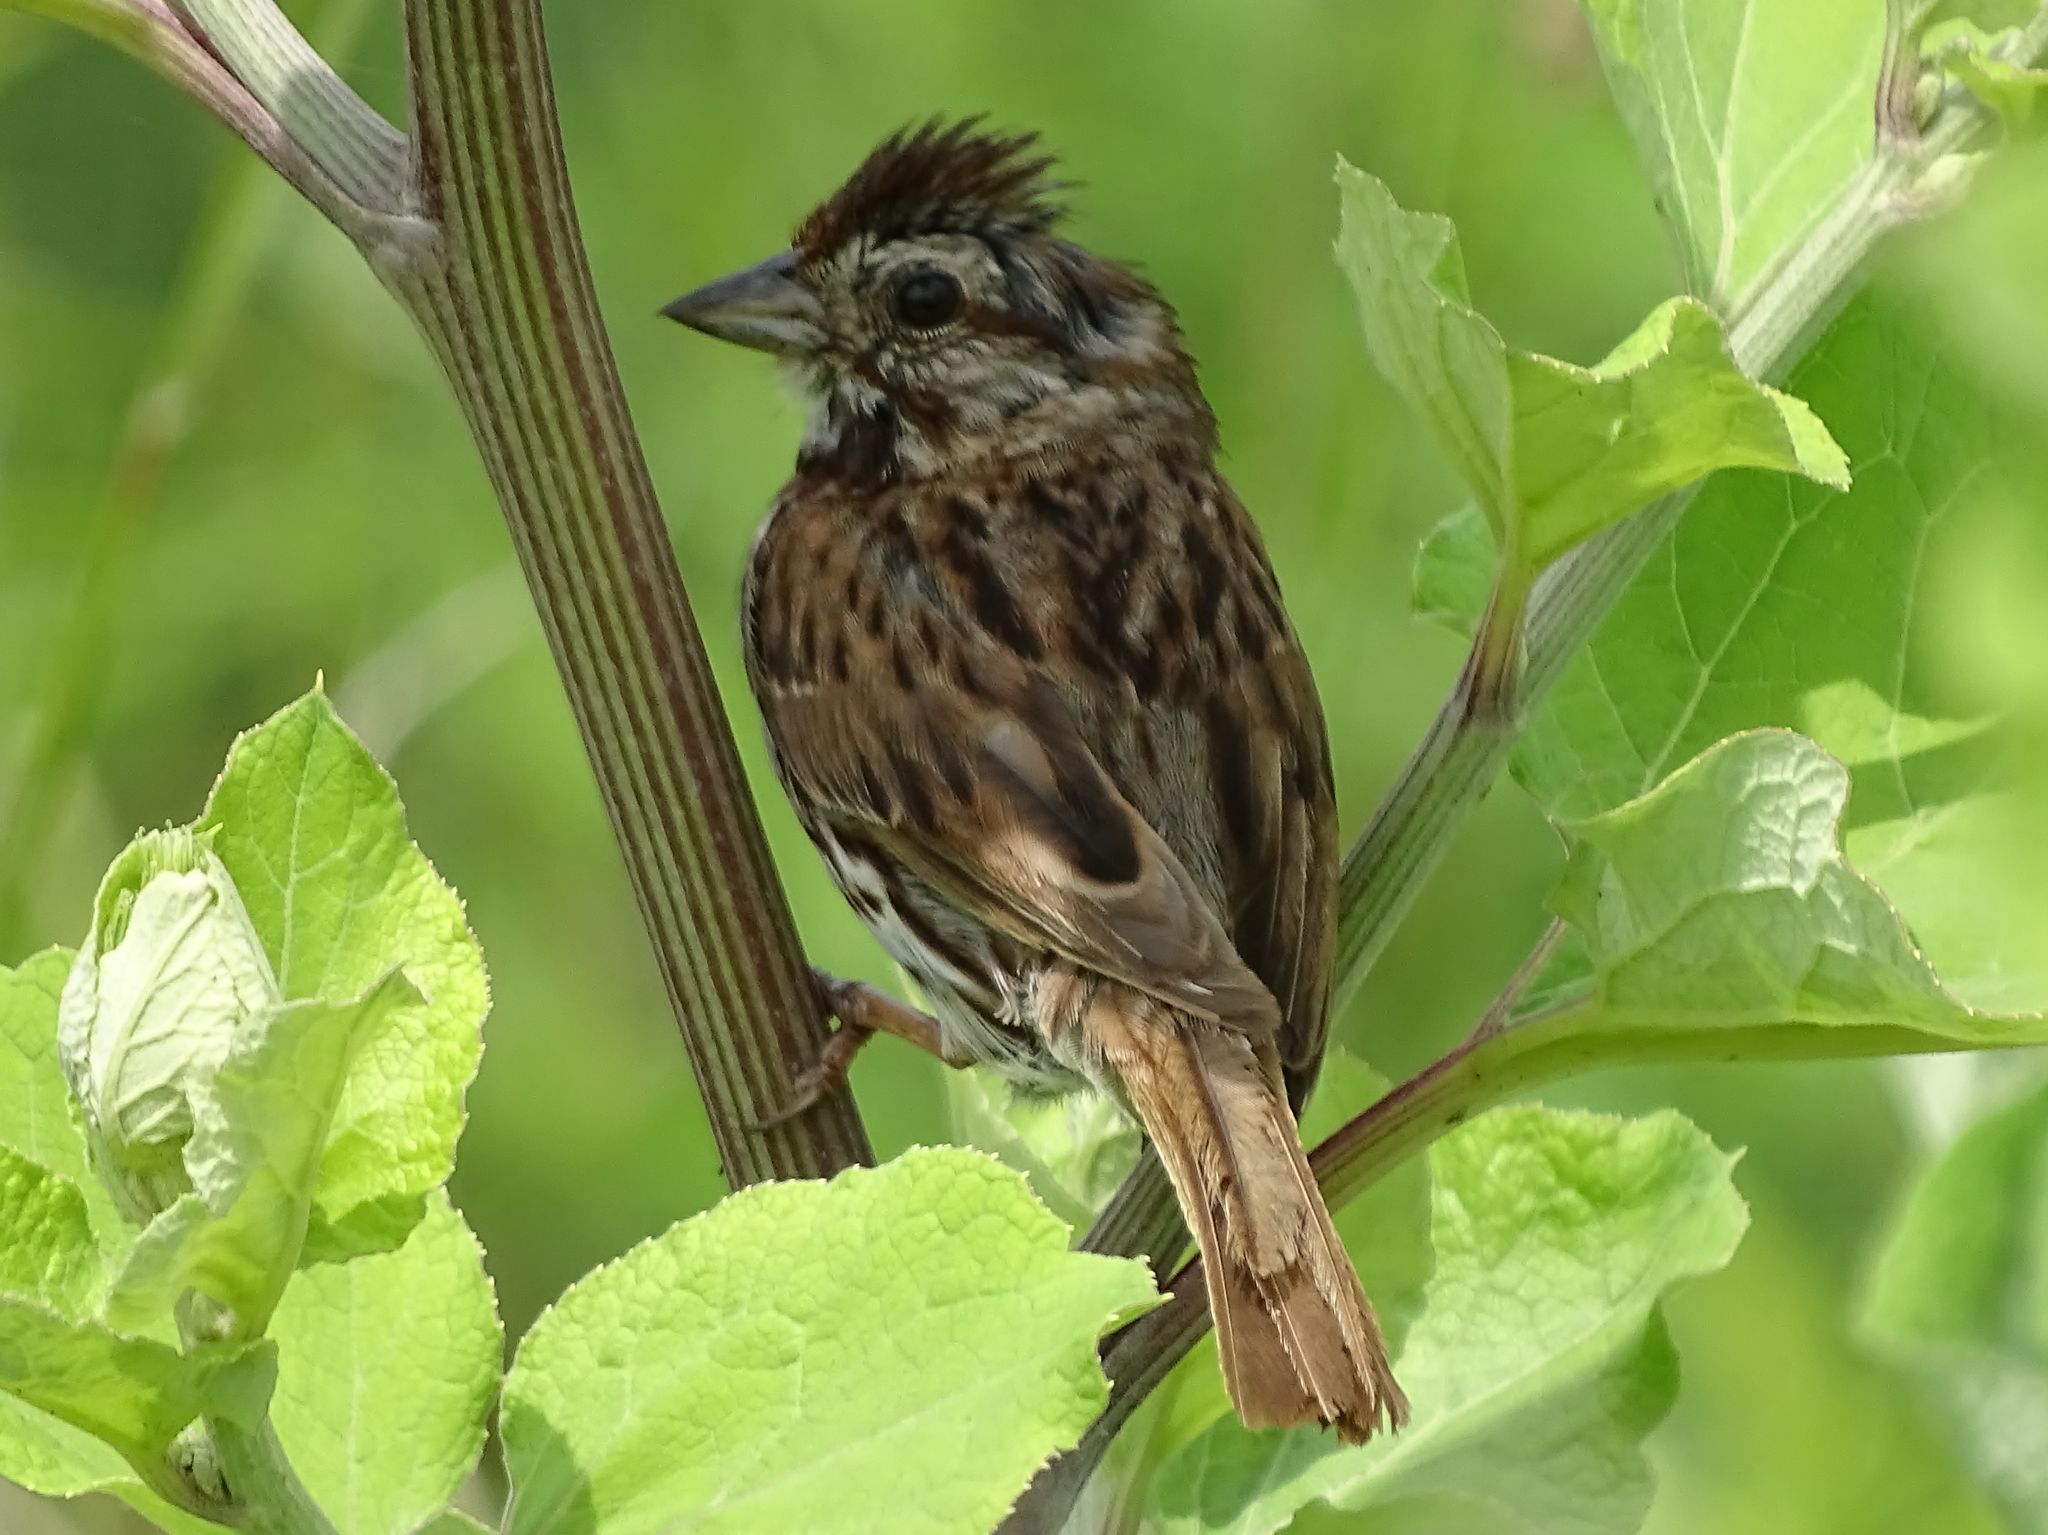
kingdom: Animalia
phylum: Chordata
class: Aves
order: Passeriformes
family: Passerellidae
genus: Melospiza
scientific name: Melospiza melodia
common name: Song sparrow
